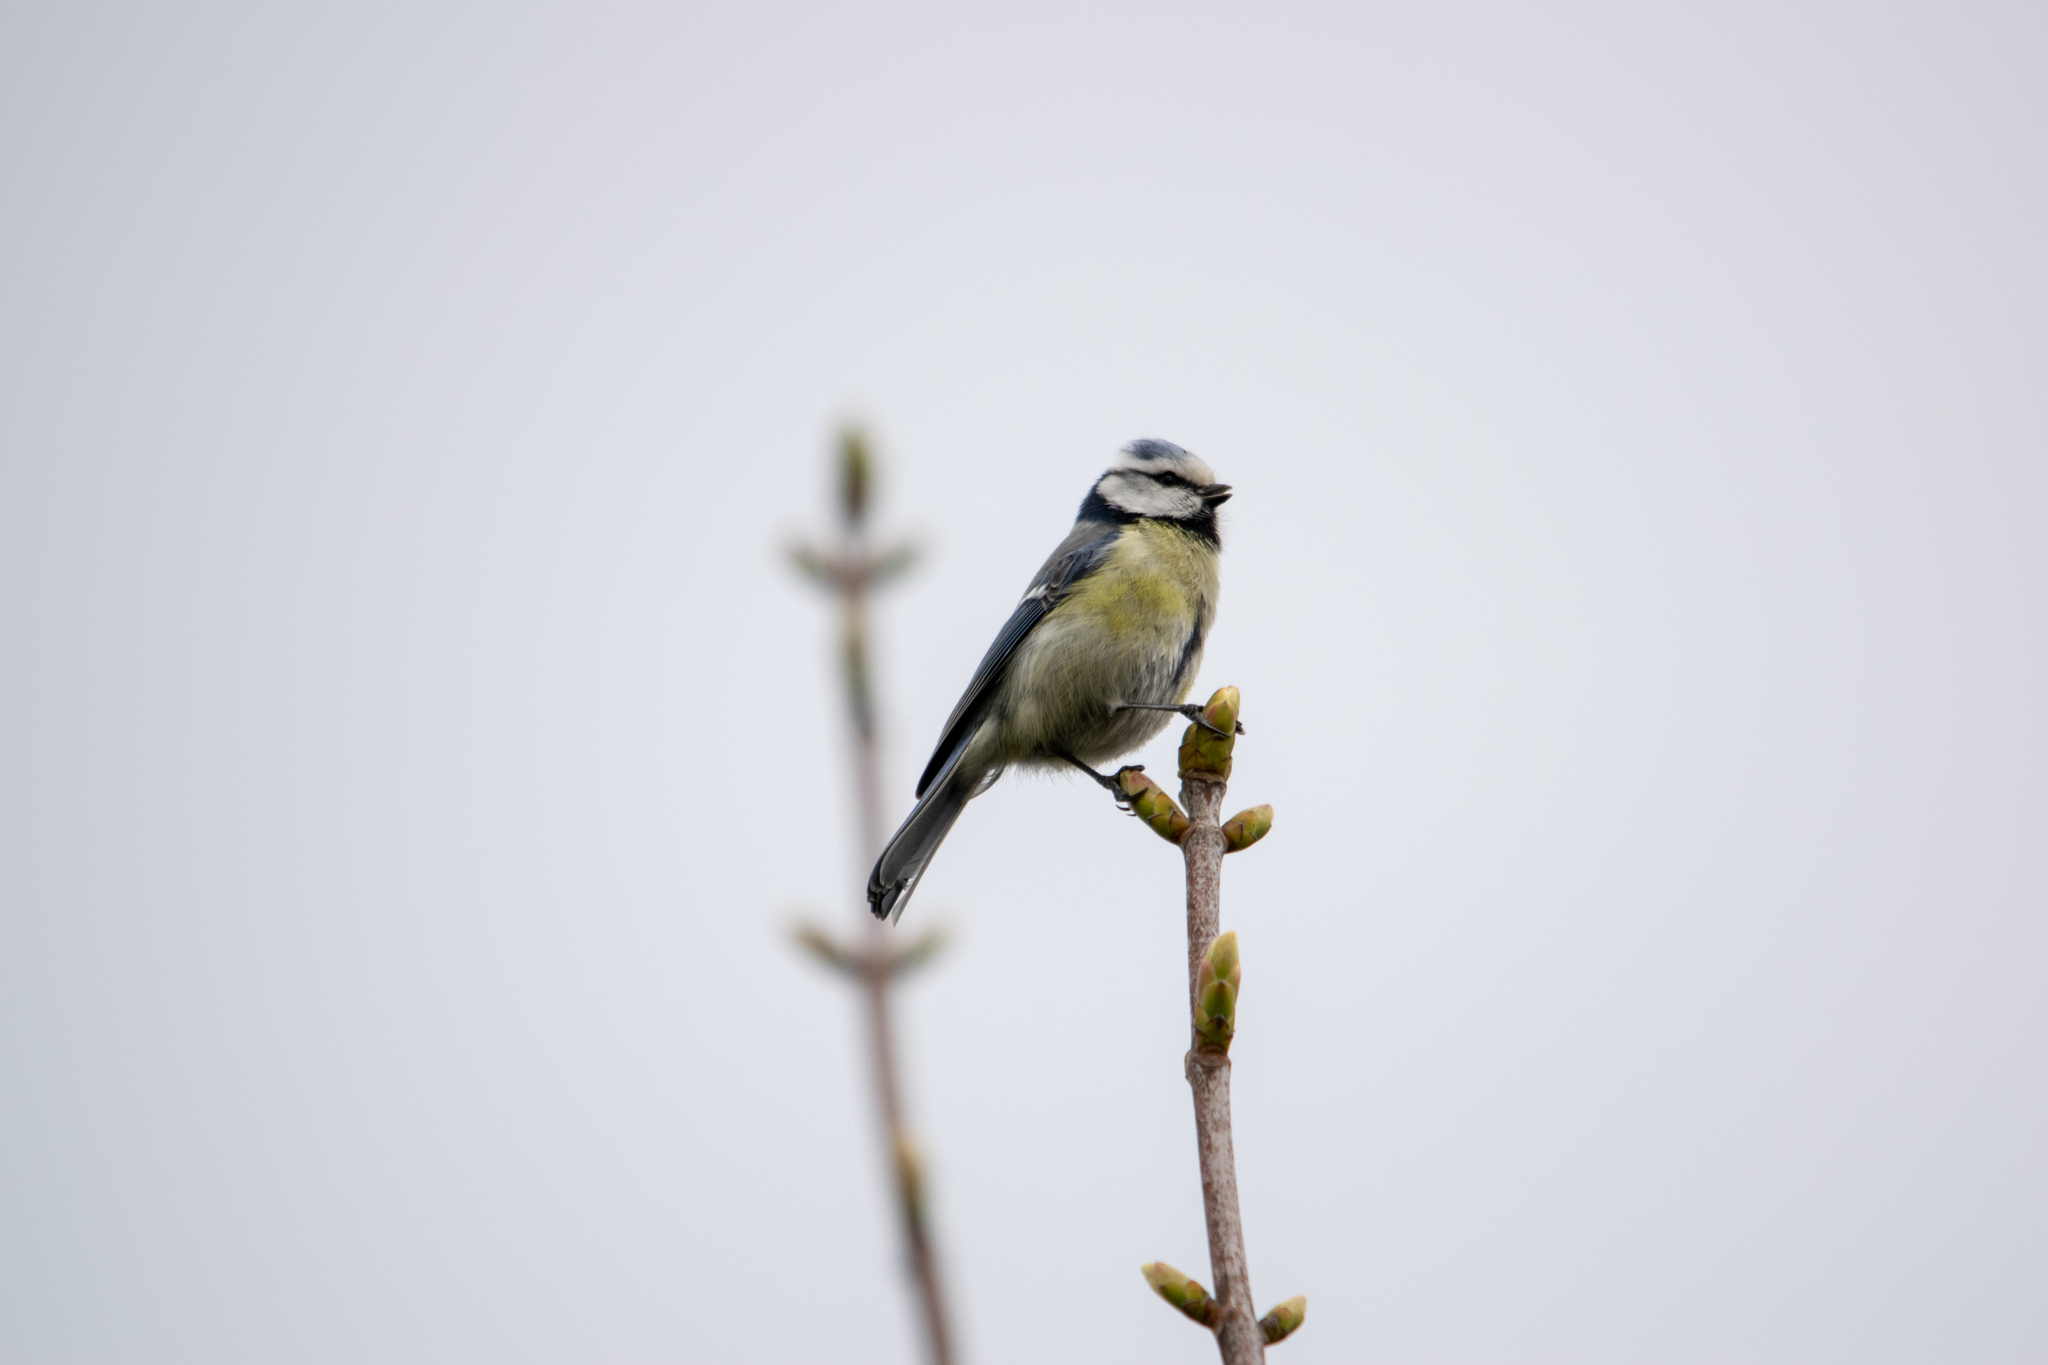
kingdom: Animalia
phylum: Chordata
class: Aves
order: Passeriformes
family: Paridae
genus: Cyanistes
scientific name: Cyanistes caeruleus
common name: Eurasian blue tit
